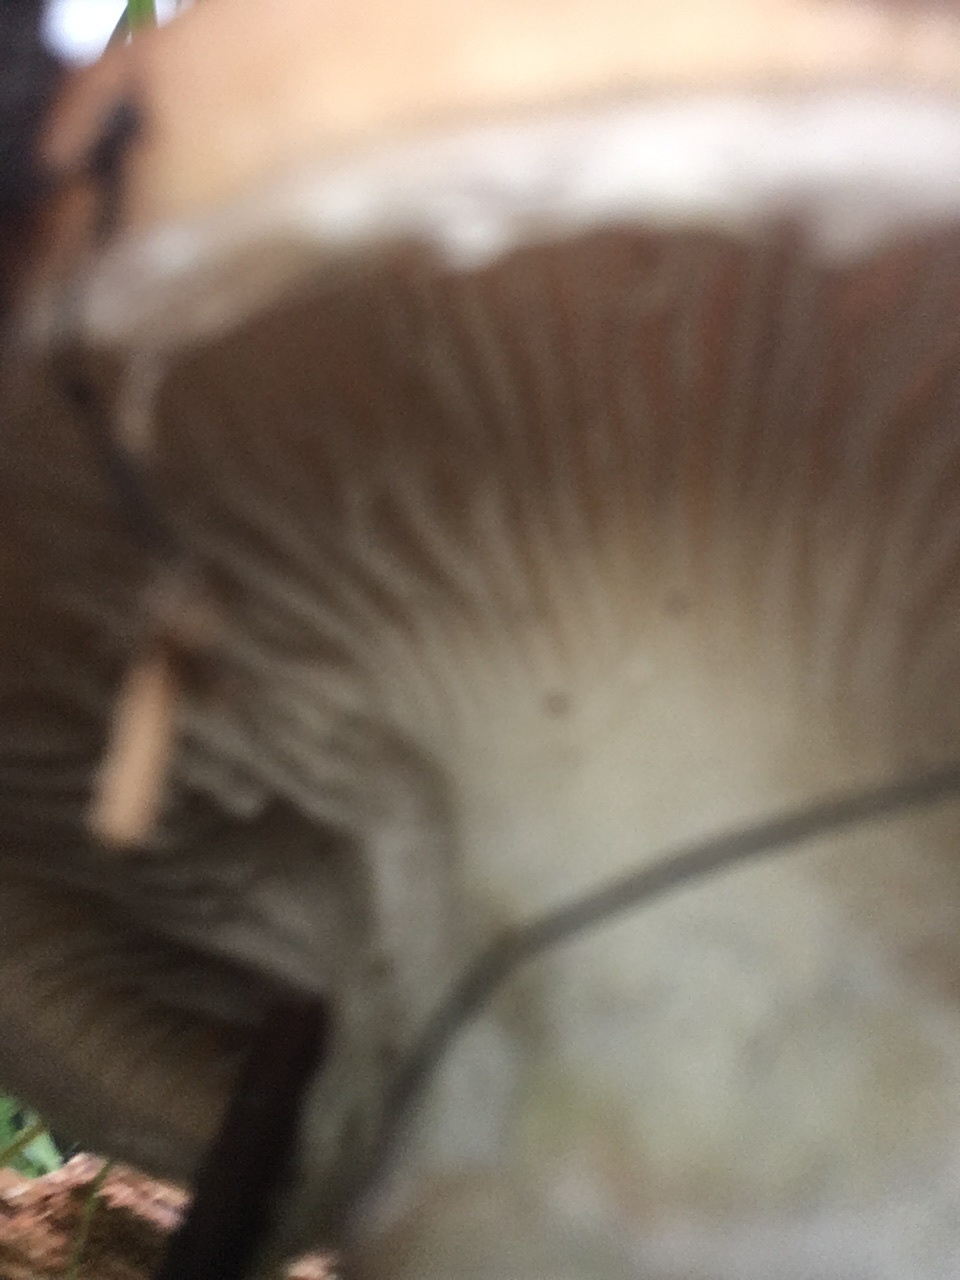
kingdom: Fungi
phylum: Basidiomycota
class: Agaricomycetes
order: Boletales
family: Gomphidiaceae
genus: Gomphidius
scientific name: Gomphidius oregonensis
